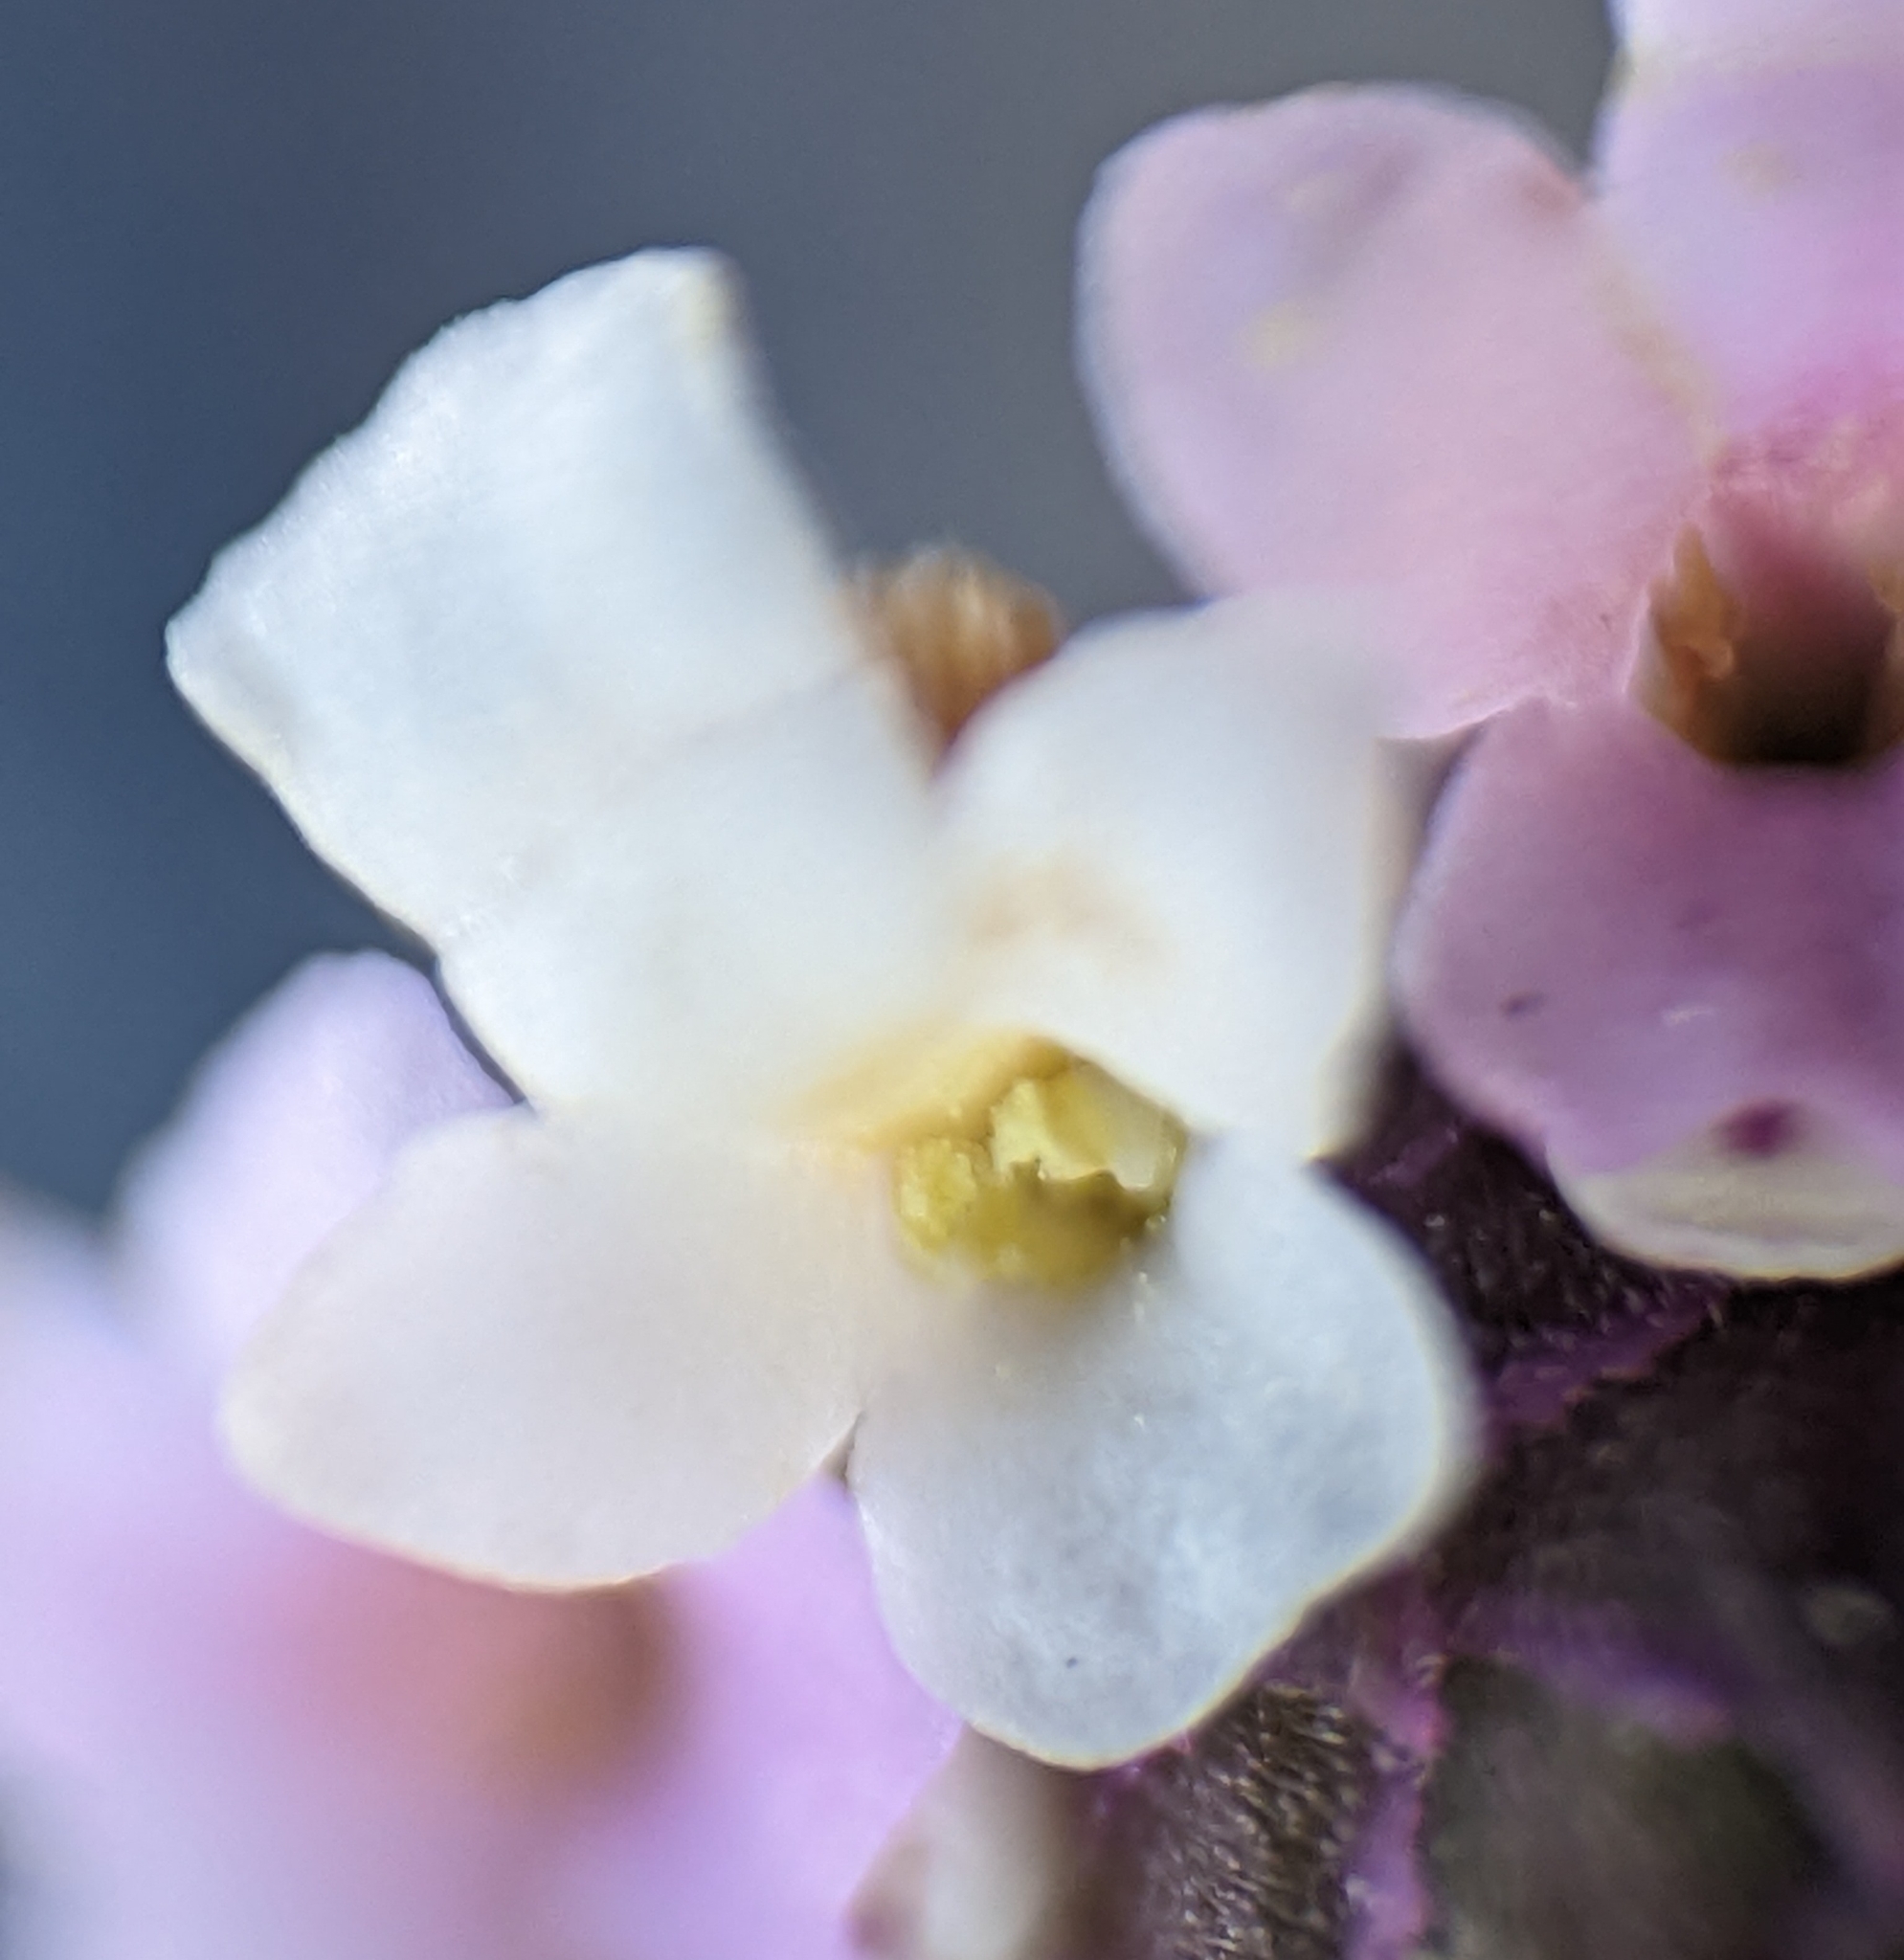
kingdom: Plantae
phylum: Tracheophyta
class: Magnoliopsida
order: Lamiales
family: Verbenaceae
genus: Phyla
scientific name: Phyla nodiflora
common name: Frogfruit
